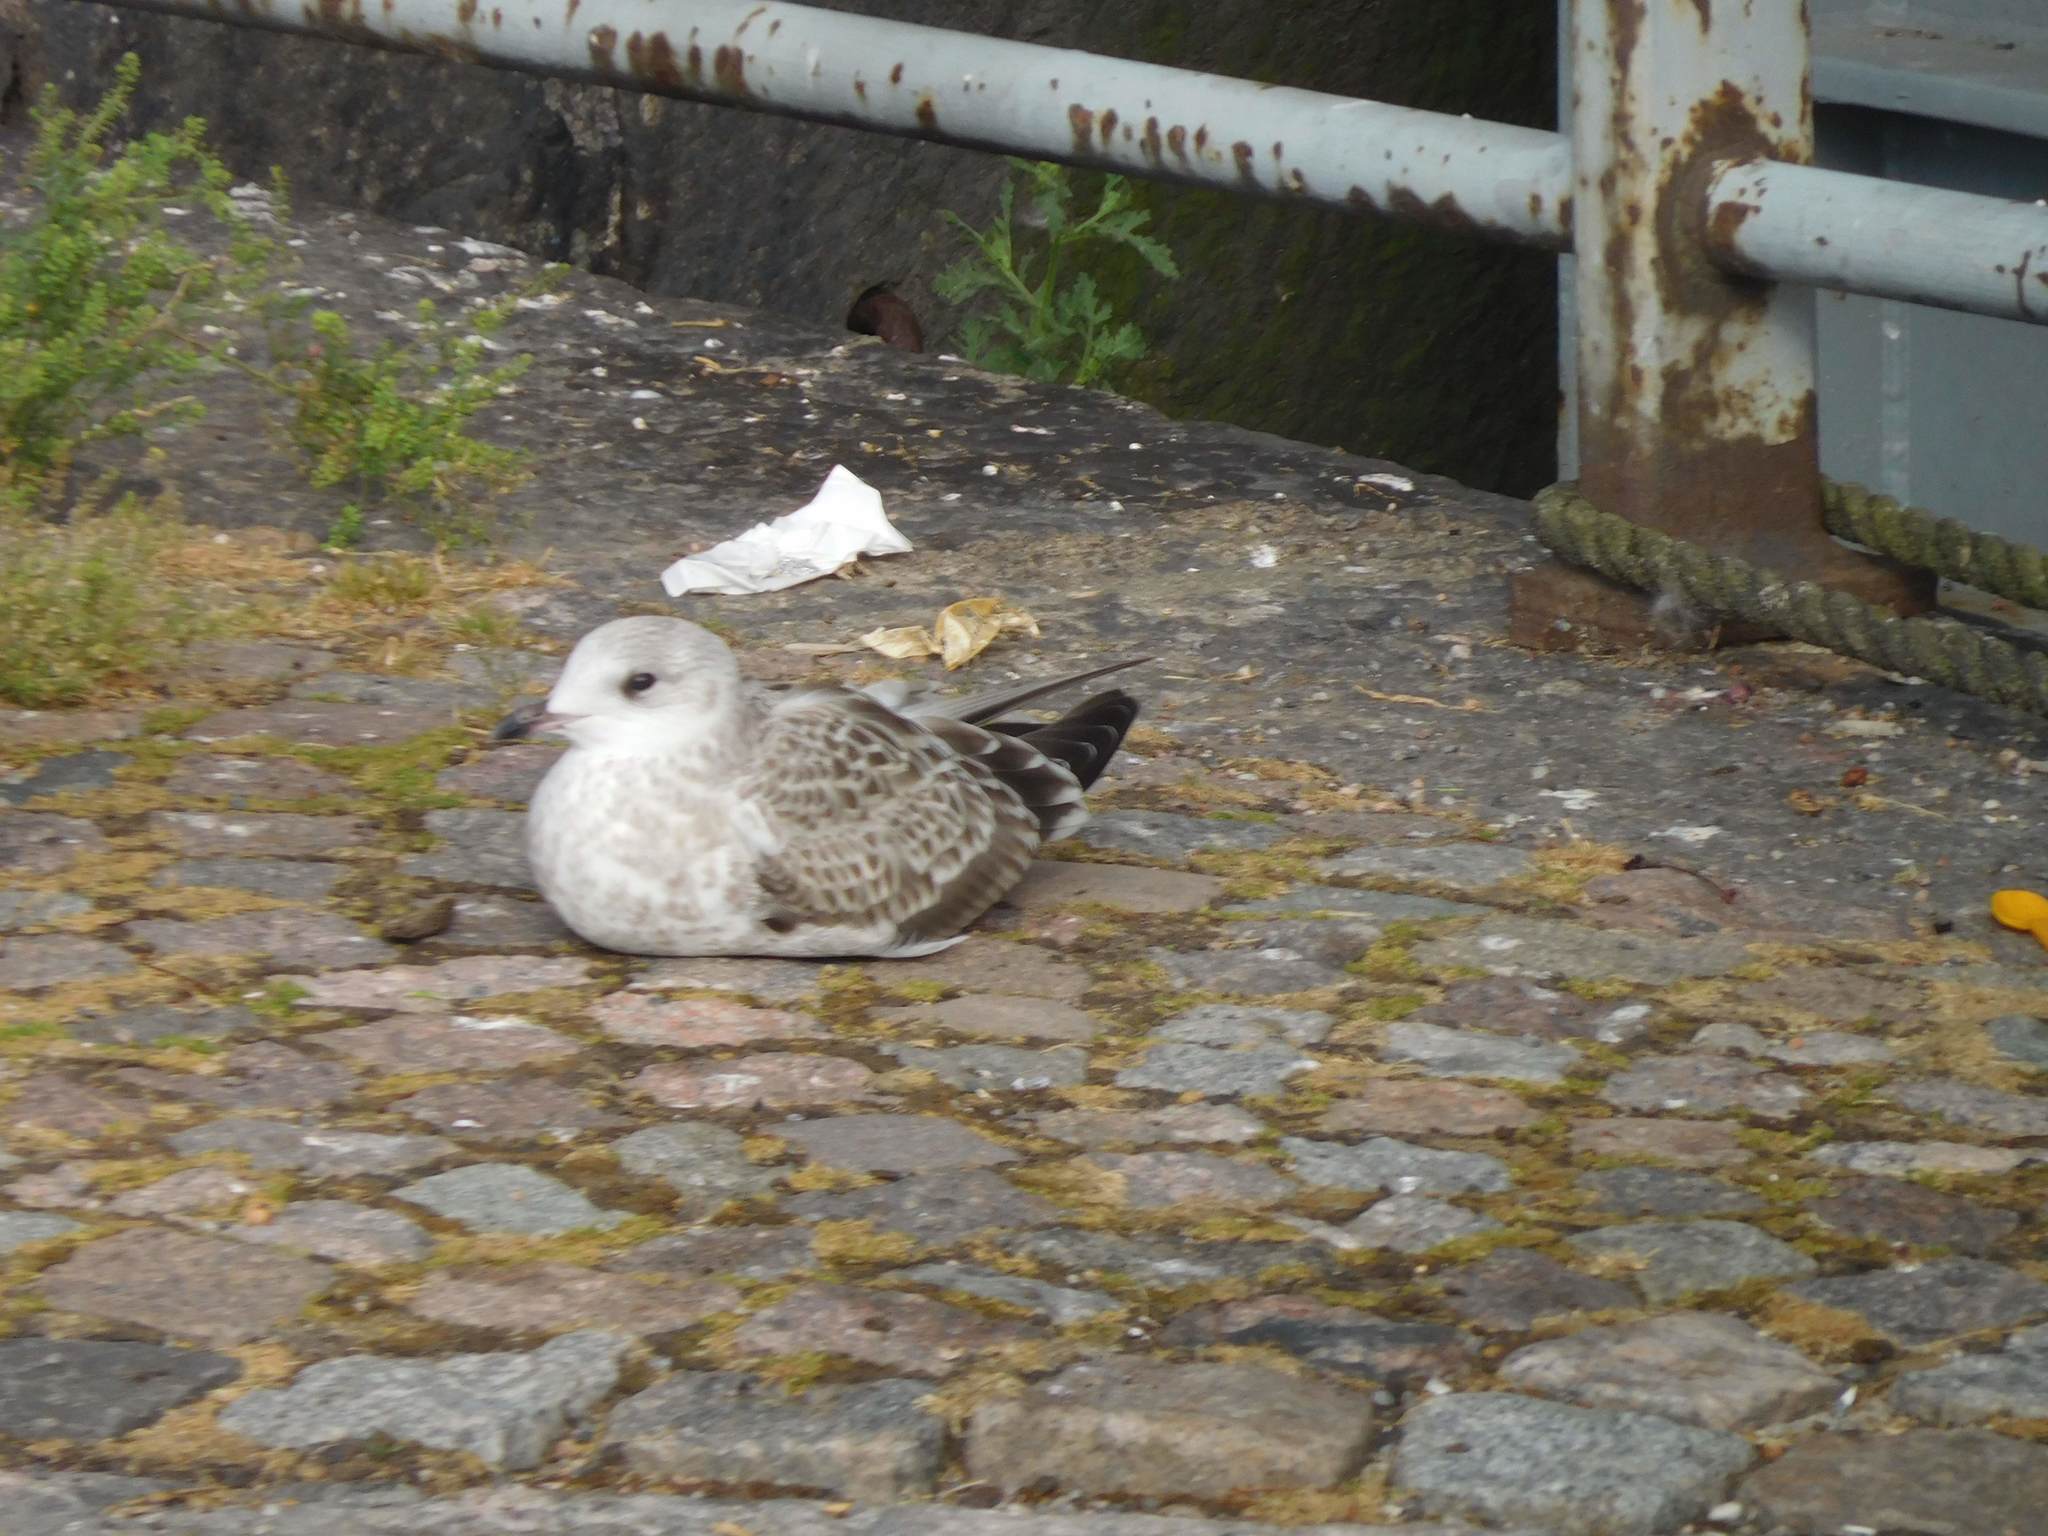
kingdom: Animalia
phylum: Chordata
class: Aves
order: Charadriiformes
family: Laridae
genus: Larus
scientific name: Larus canus
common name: Mew gull
